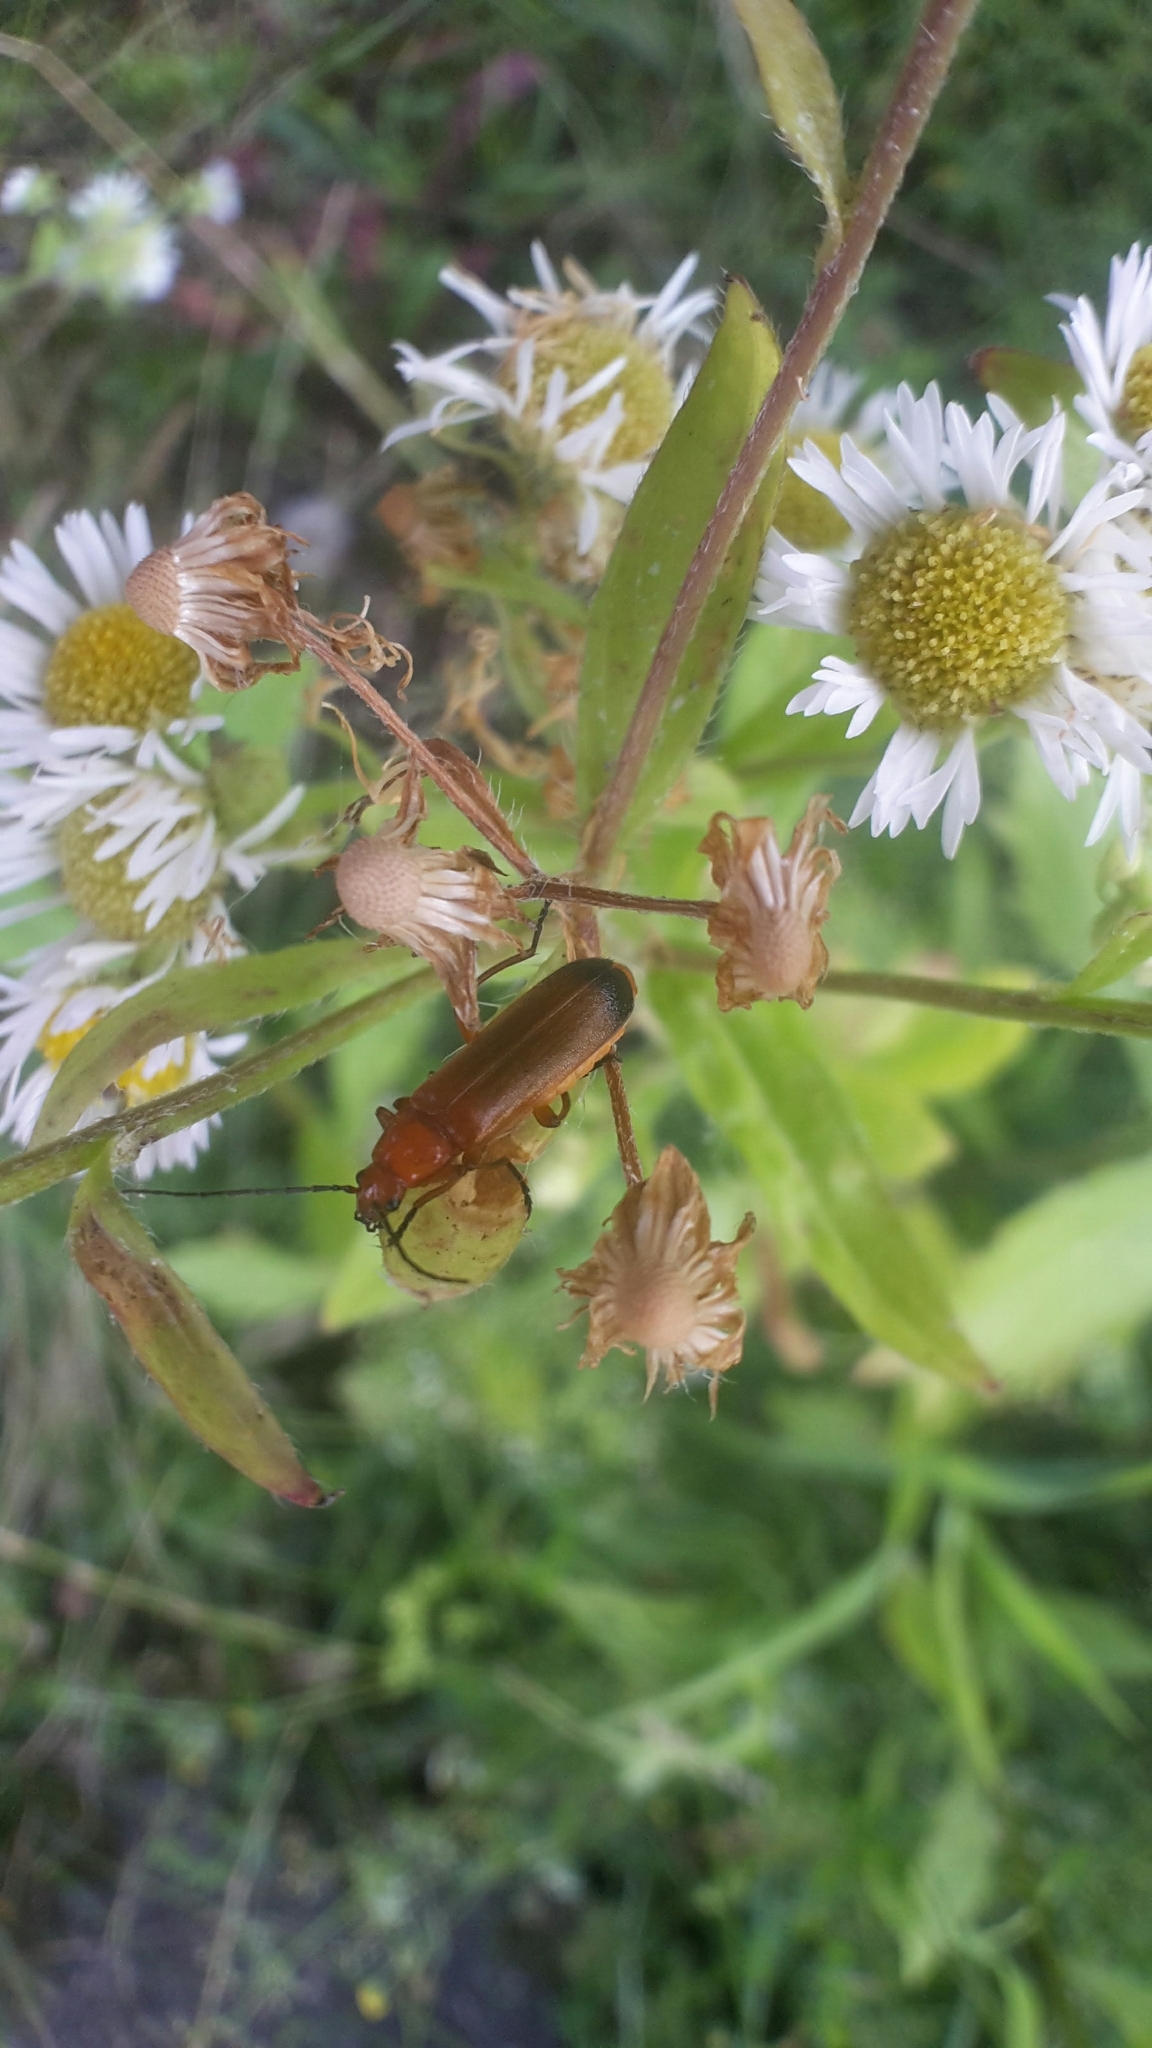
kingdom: Animalia
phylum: Arthropoda
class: Insecta
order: Coleoptera
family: Cantharidae
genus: Rhagonycha
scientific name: Rhagonycha fulva
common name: Common red soldier beetle
